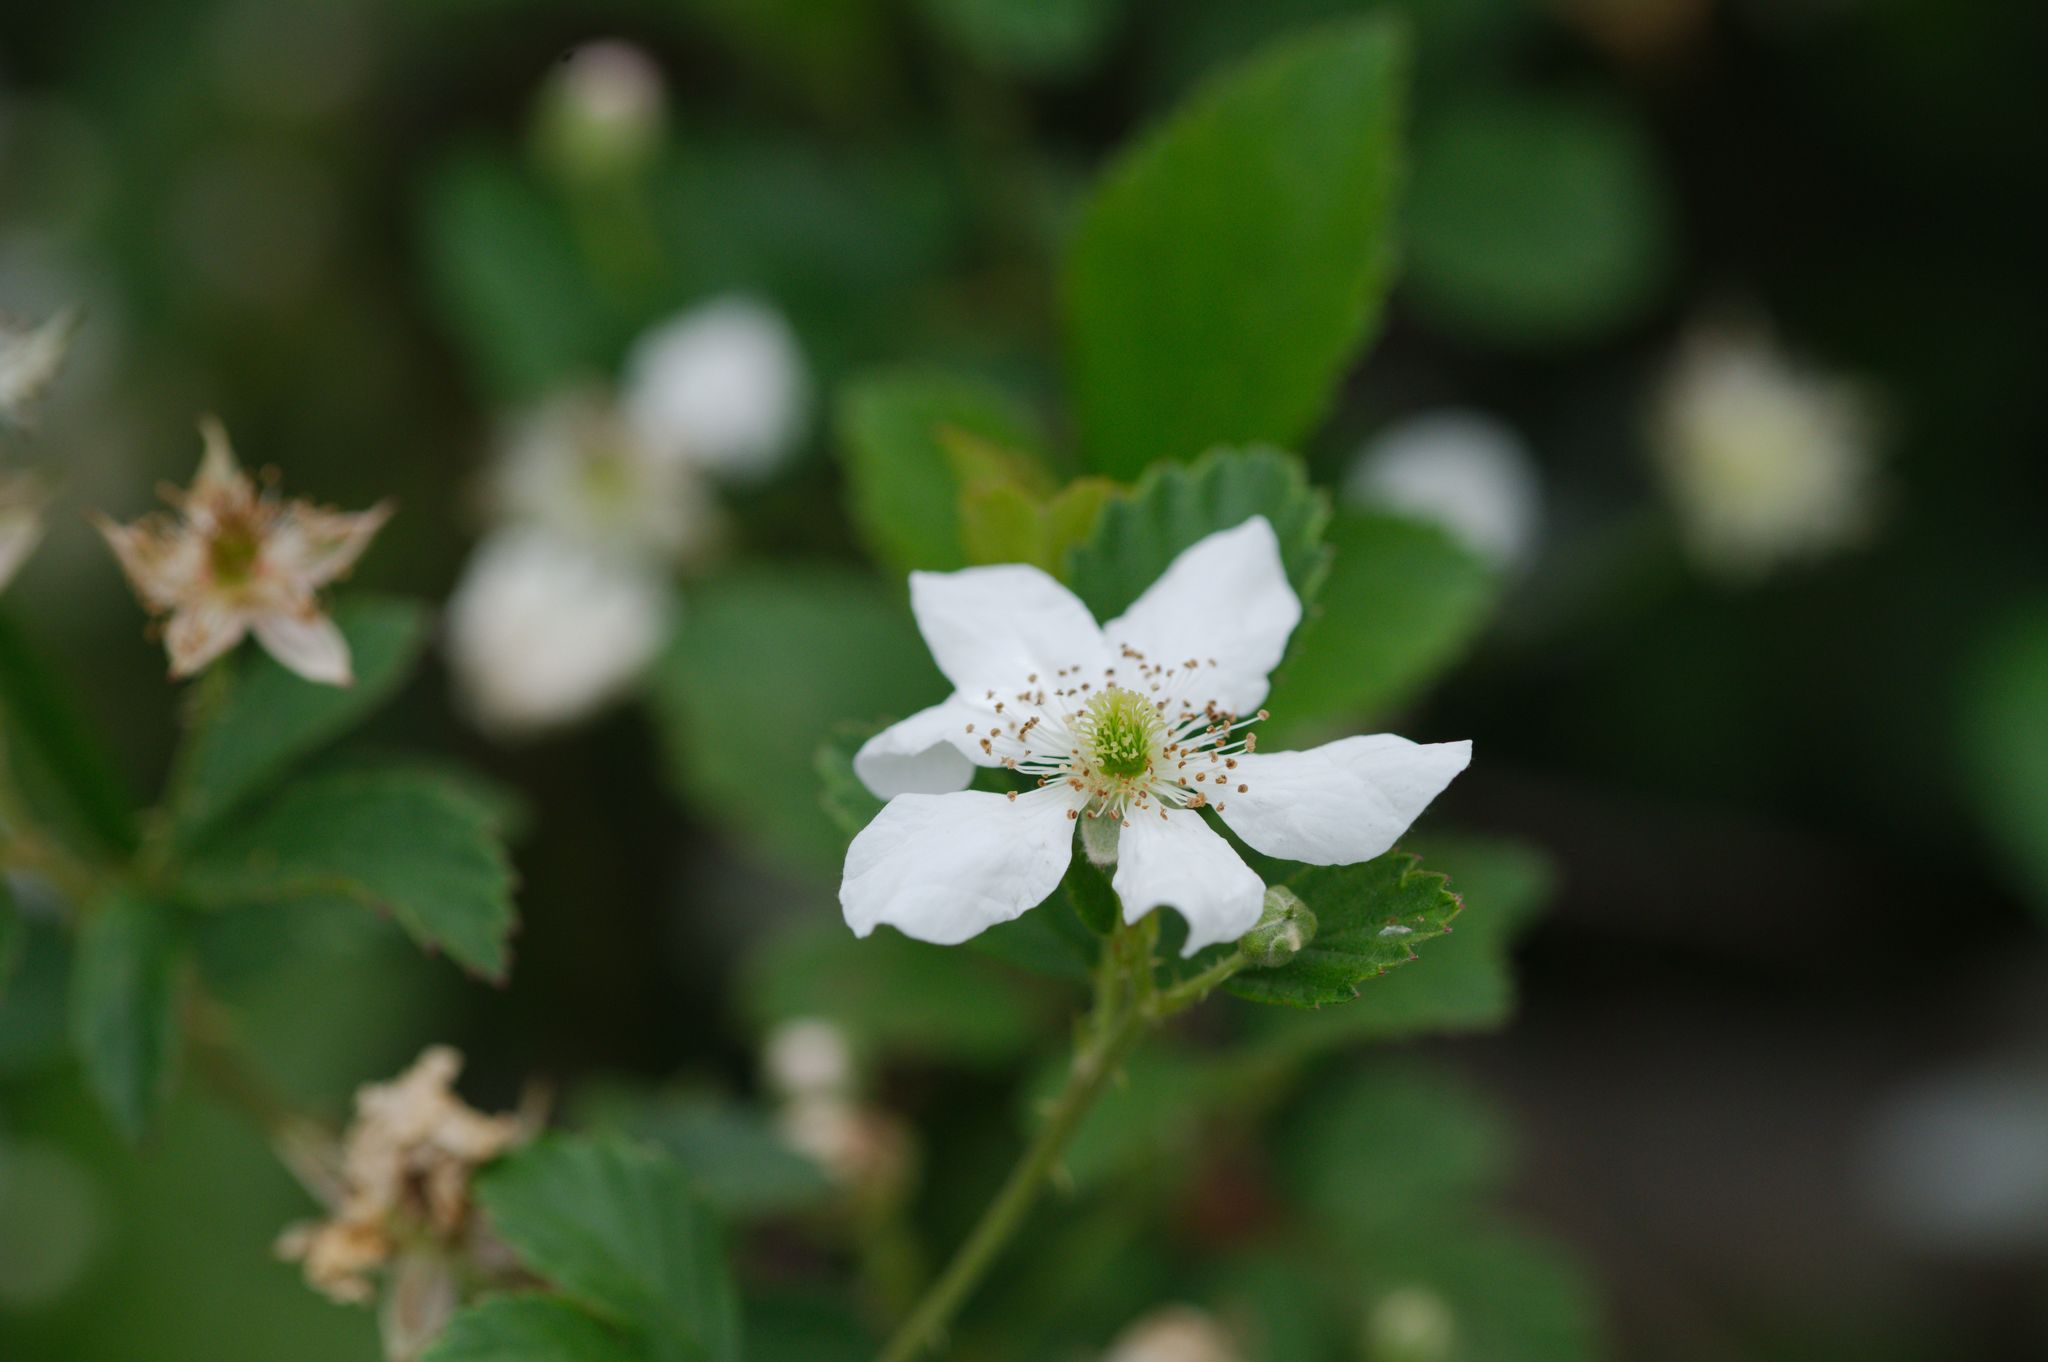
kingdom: Plantae
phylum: Tracheophyta
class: Magnoliopsida
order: Rosales
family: Rosaceae
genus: Rubus
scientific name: Rubus cuneifolius
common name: American bramble
